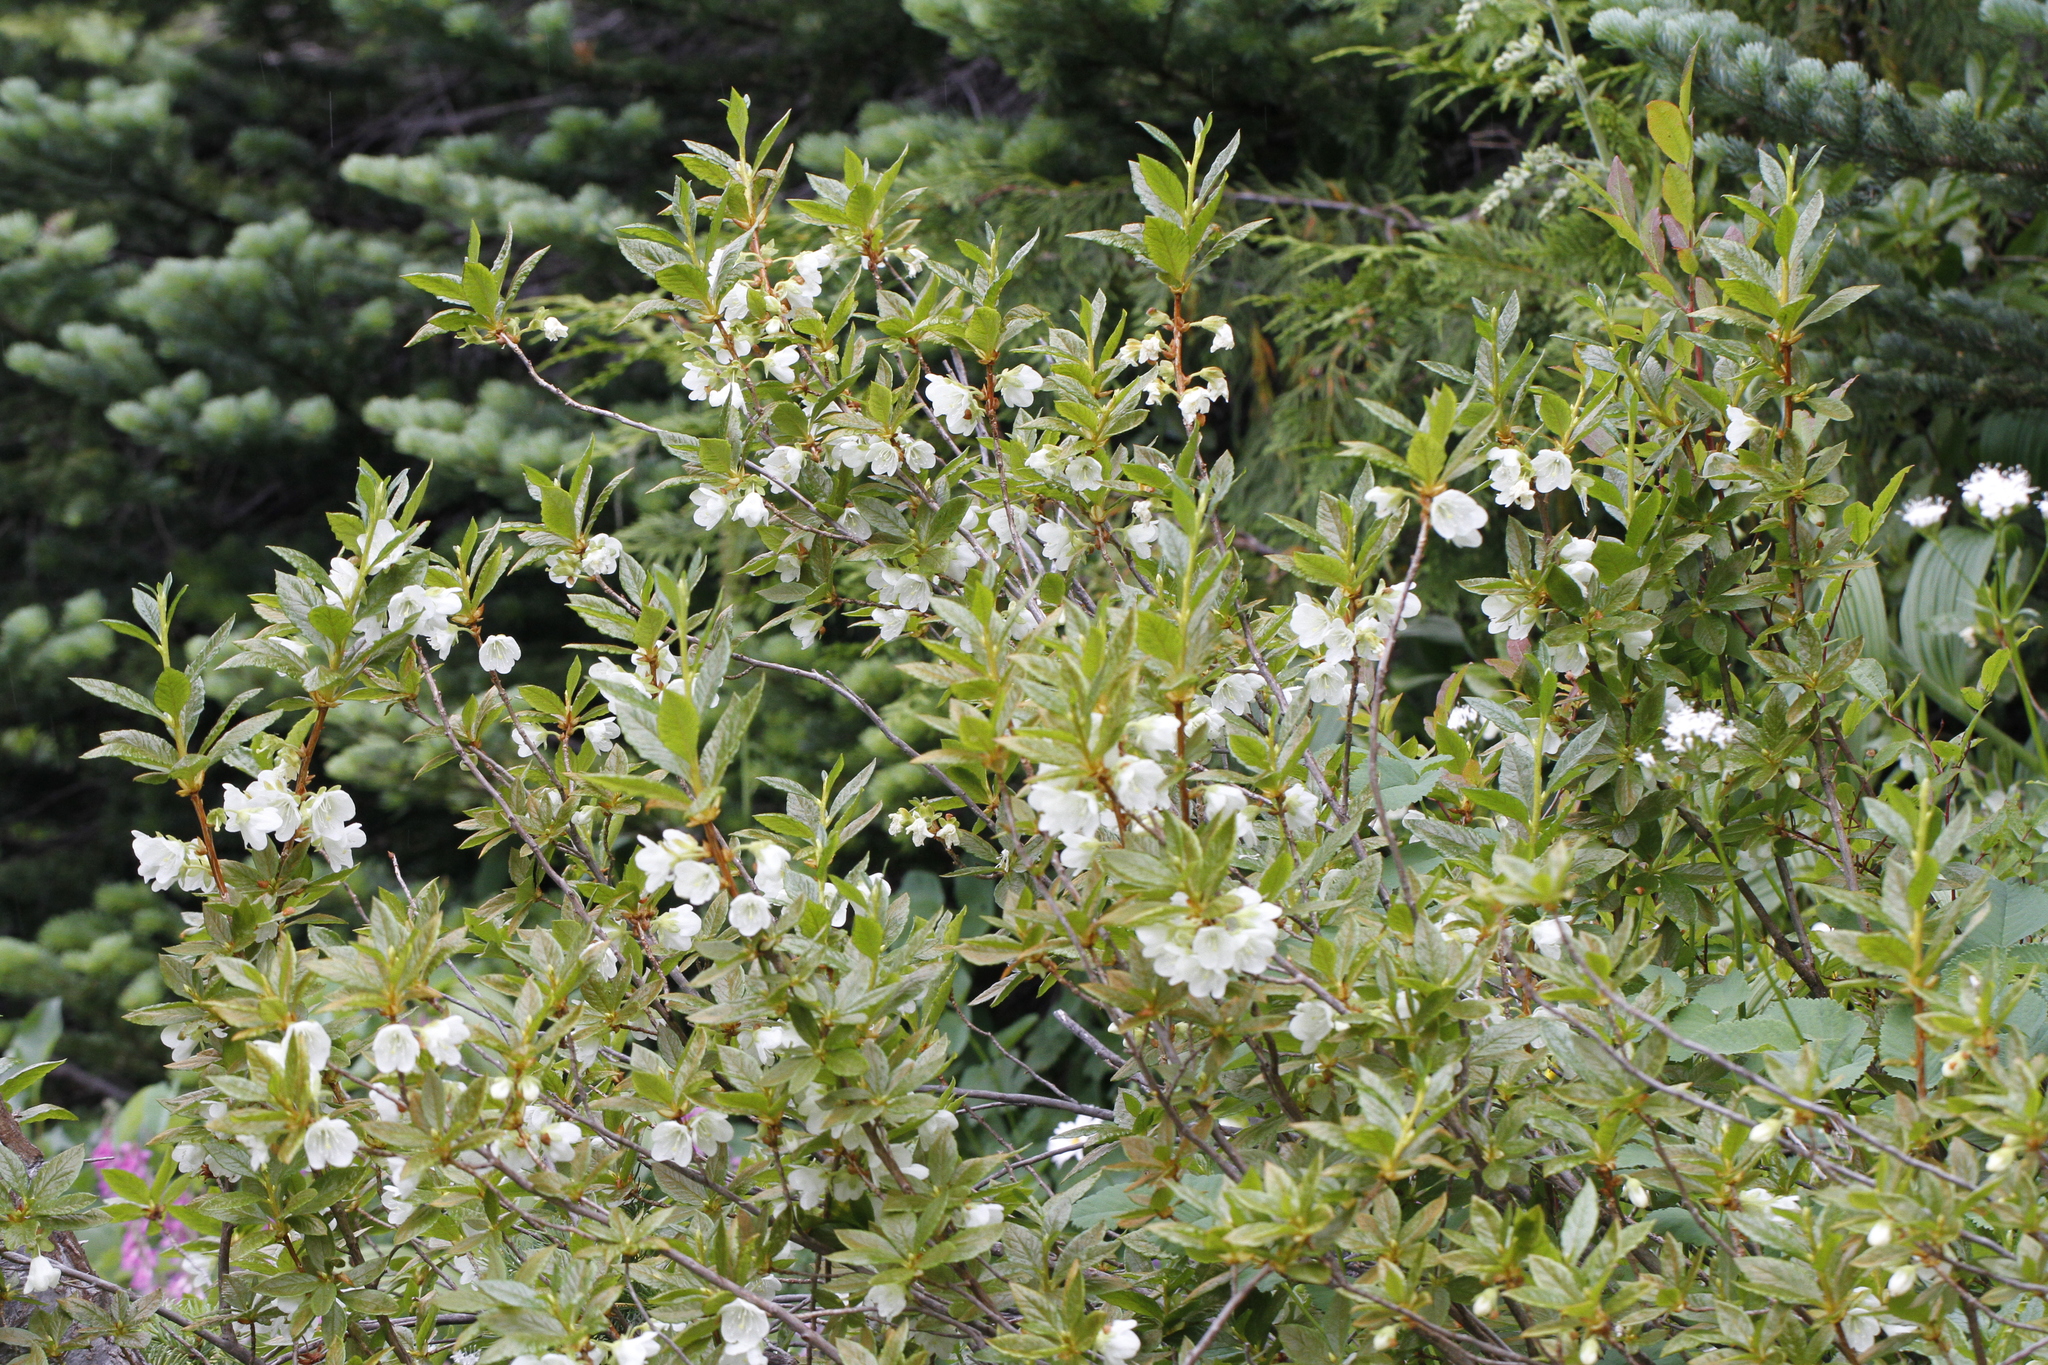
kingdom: Plantae
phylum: Tracheophyta
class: Magnoliopsida
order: Ericales
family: Ericaceae
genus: Rhododendron
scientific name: Rhododendron albiflorum
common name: White rhododendron
